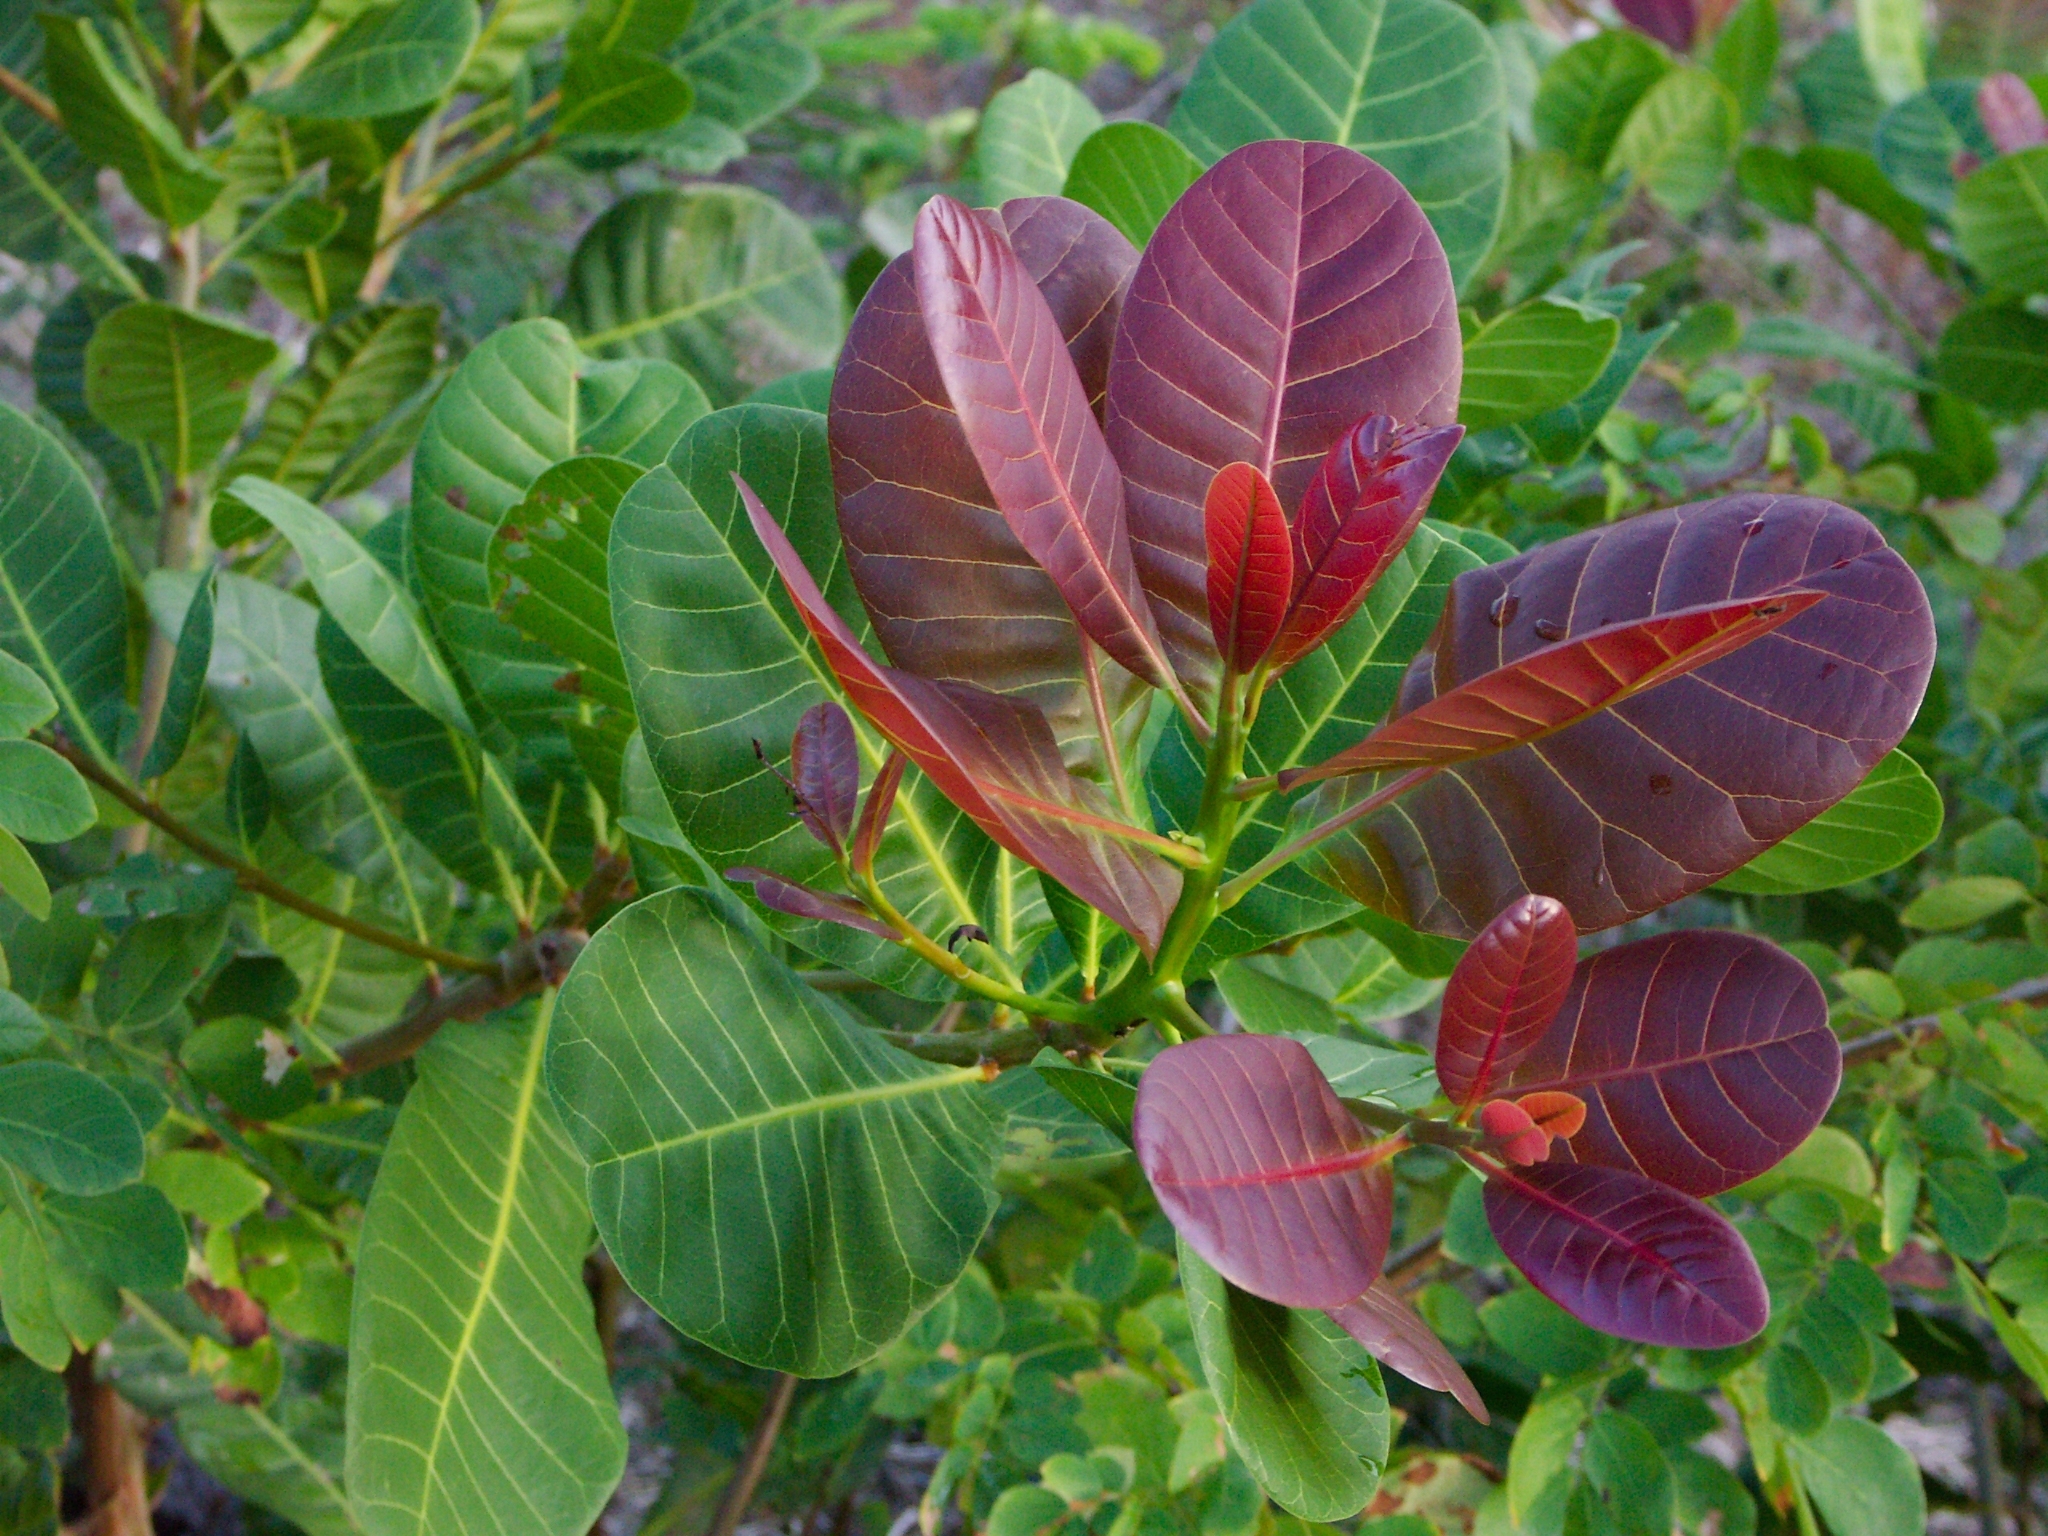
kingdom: Plantae
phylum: Tracheophyta
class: Magnoliopsida
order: Sapindales
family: Anacardiaceae
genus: Anacardium
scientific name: Anacardium occidentale
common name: Cashew
